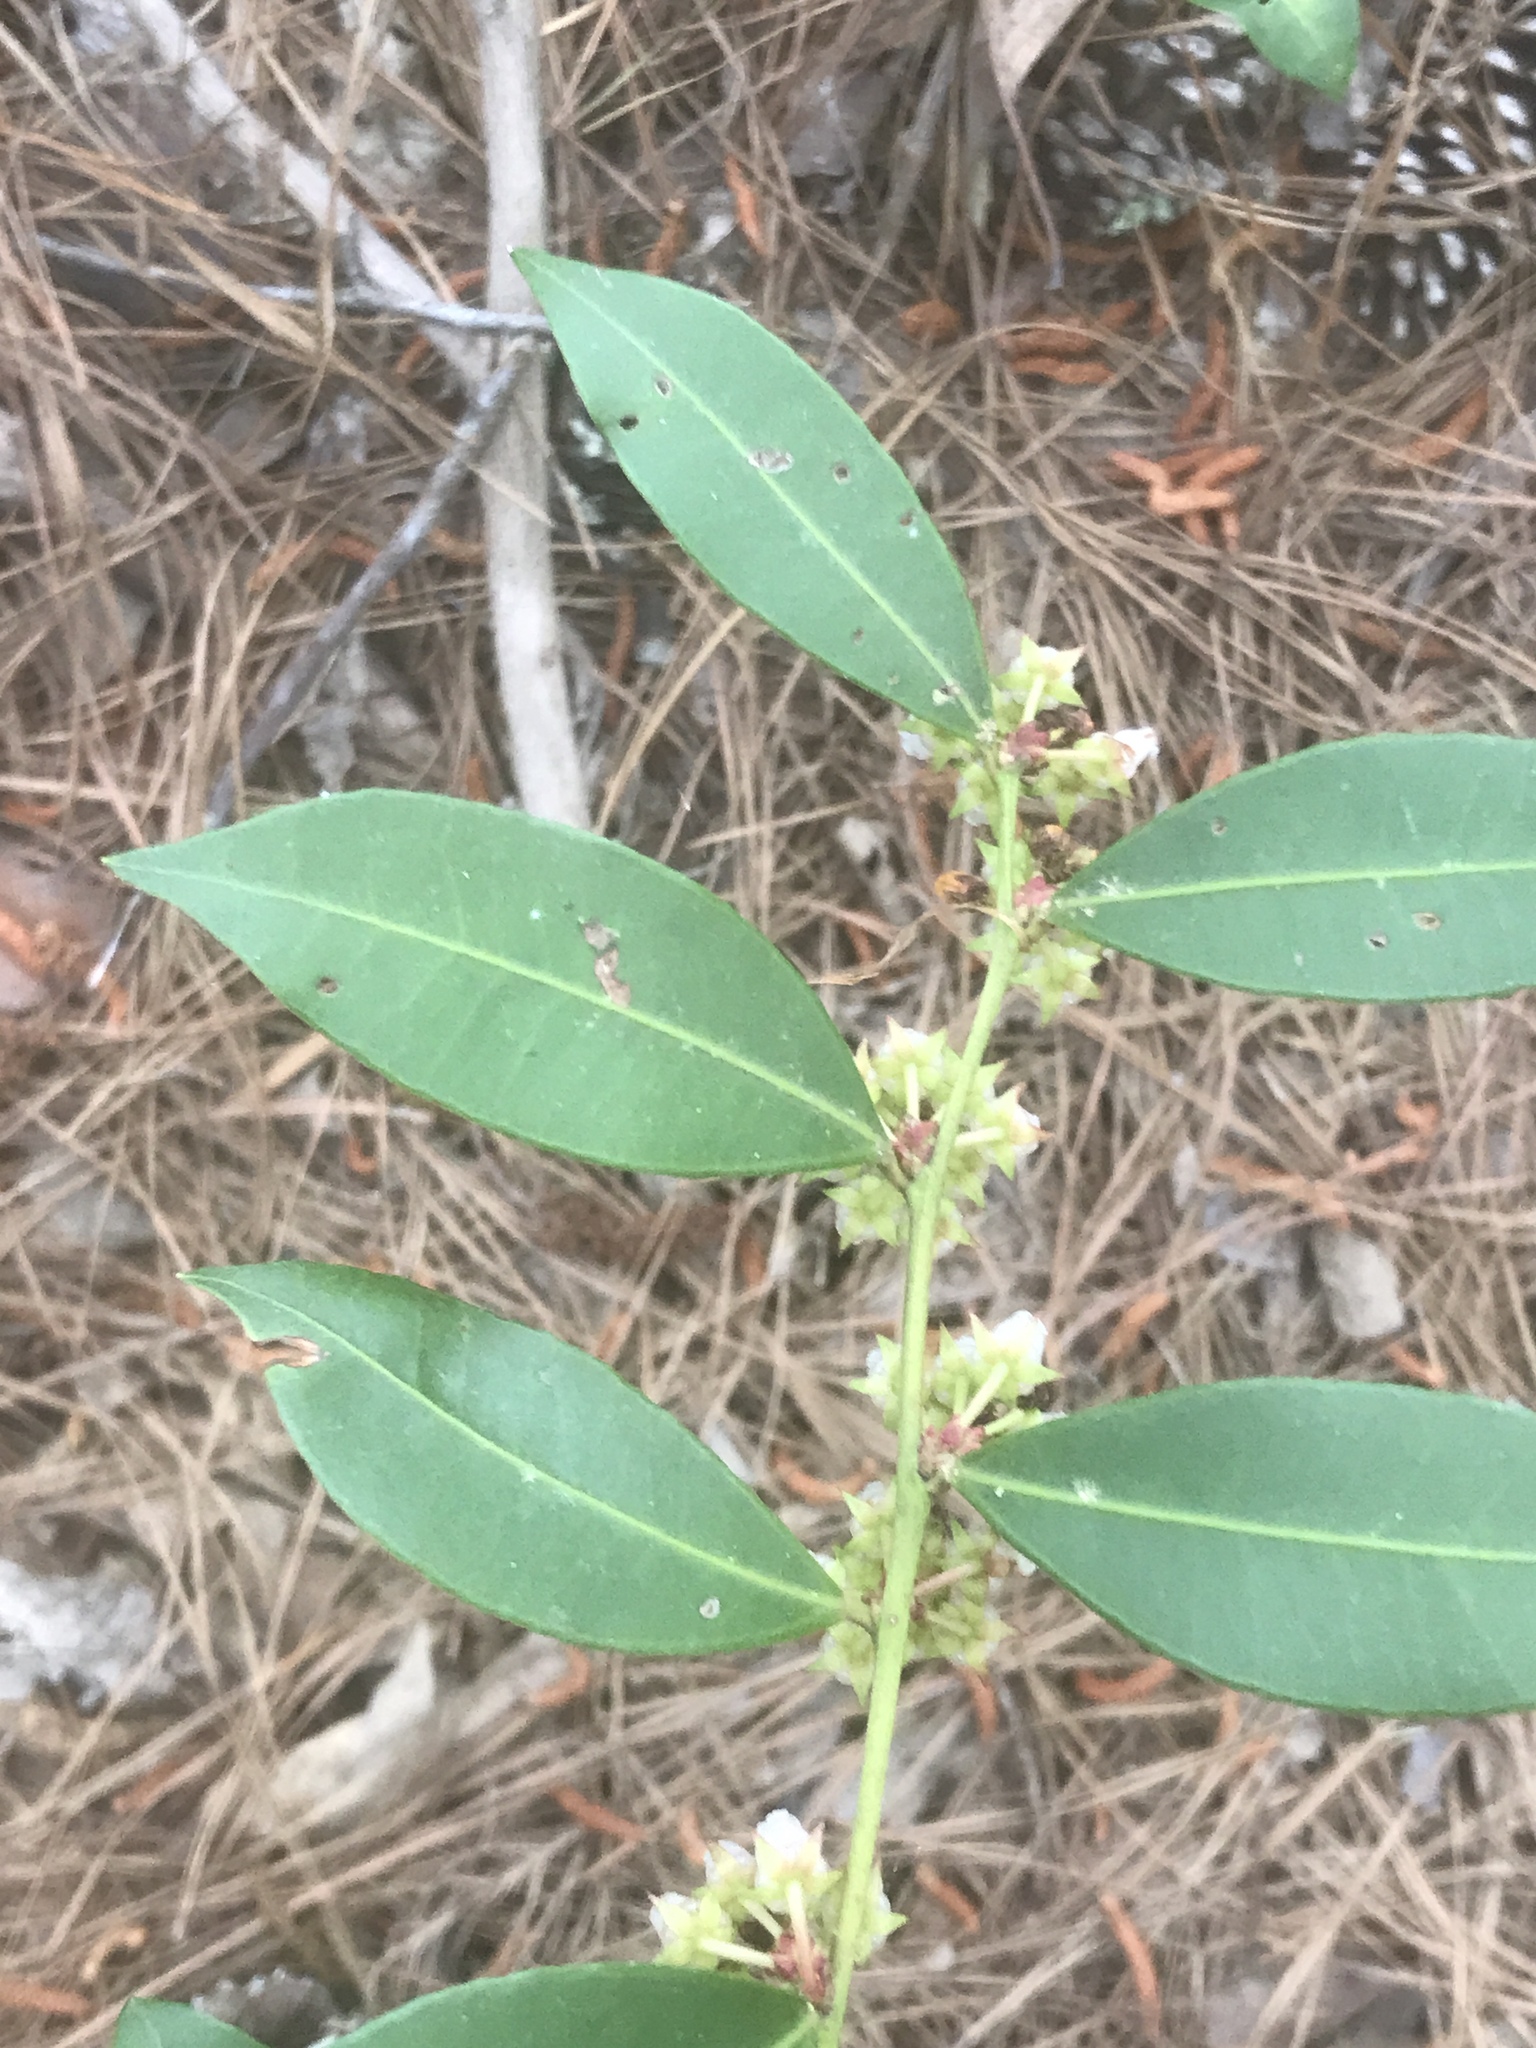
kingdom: Plantae
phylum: Tracheophyta
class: Magnoliopsida
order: Ericales
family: Ericaceae
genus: Lyonia
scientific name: Lyonia lucida
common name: Fetterbush
